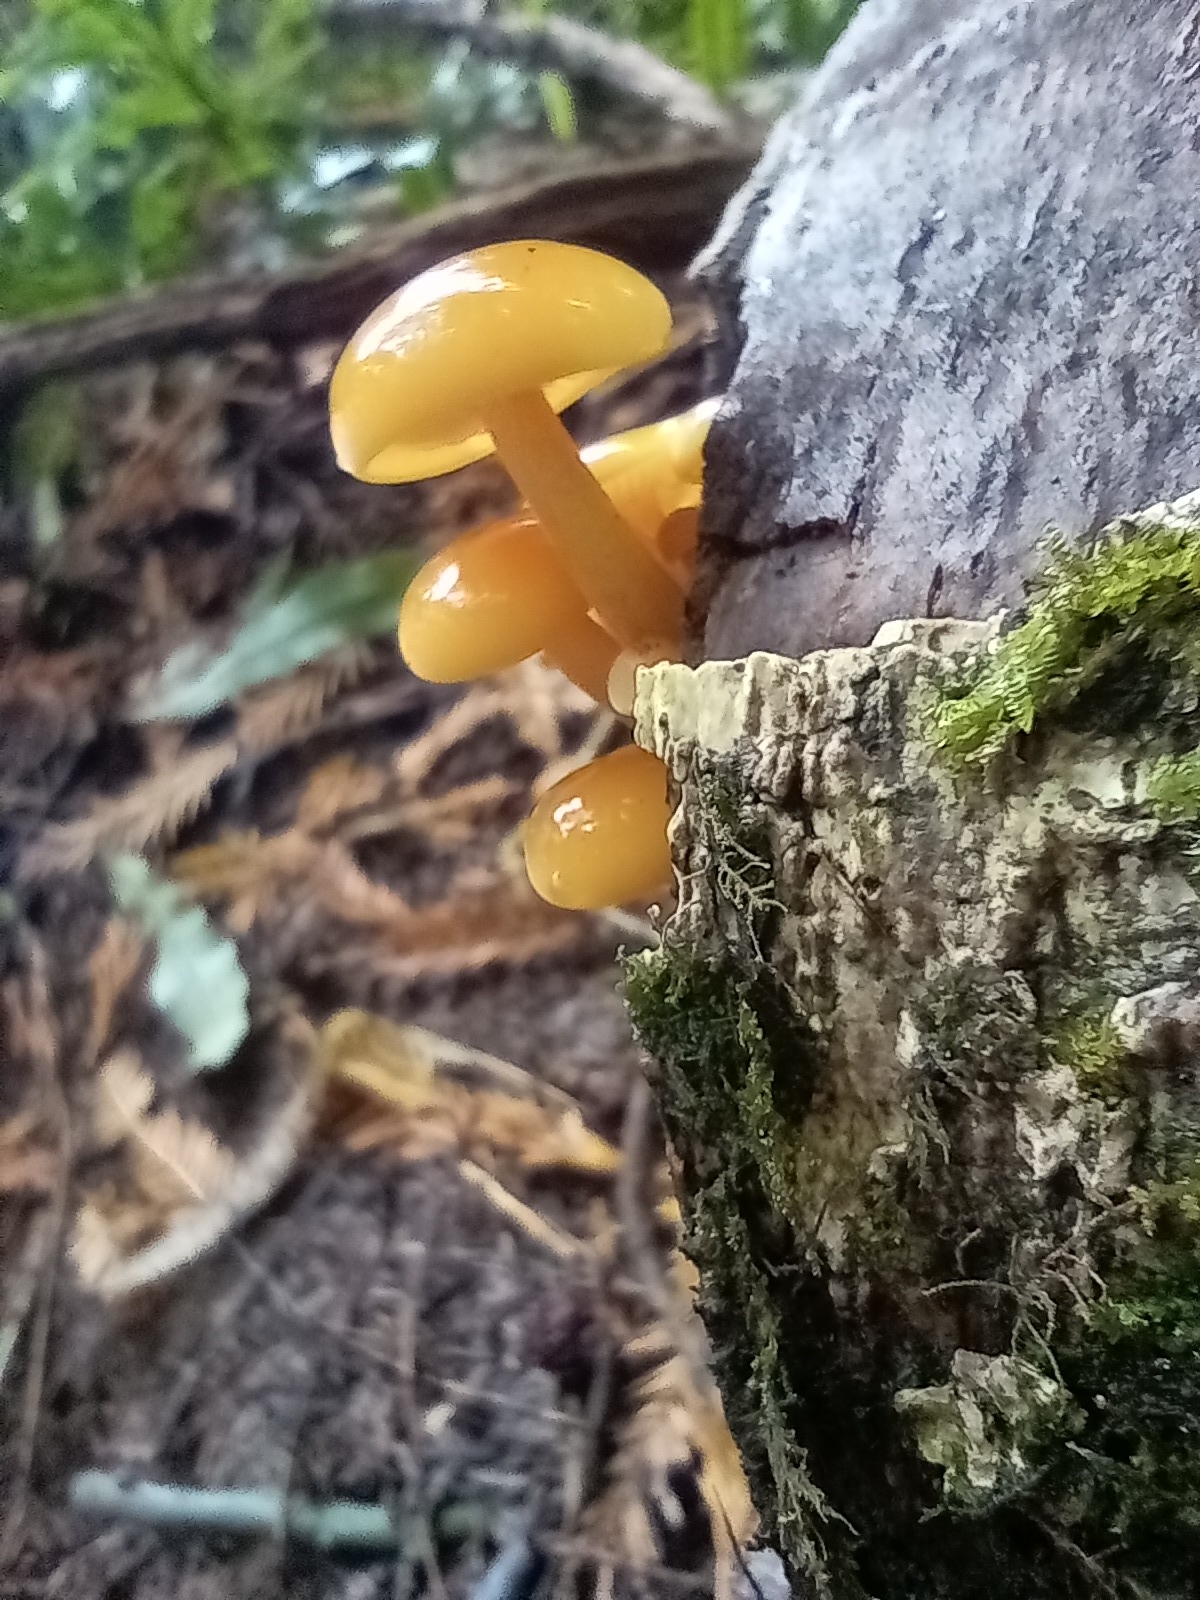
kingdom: Fungi
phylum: Basidiomycota
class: Agaricomycetes
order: Agaricales
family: Physalacriaceae
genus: Flammulina
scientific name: Flammulina velutipes
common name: Velvet shank
